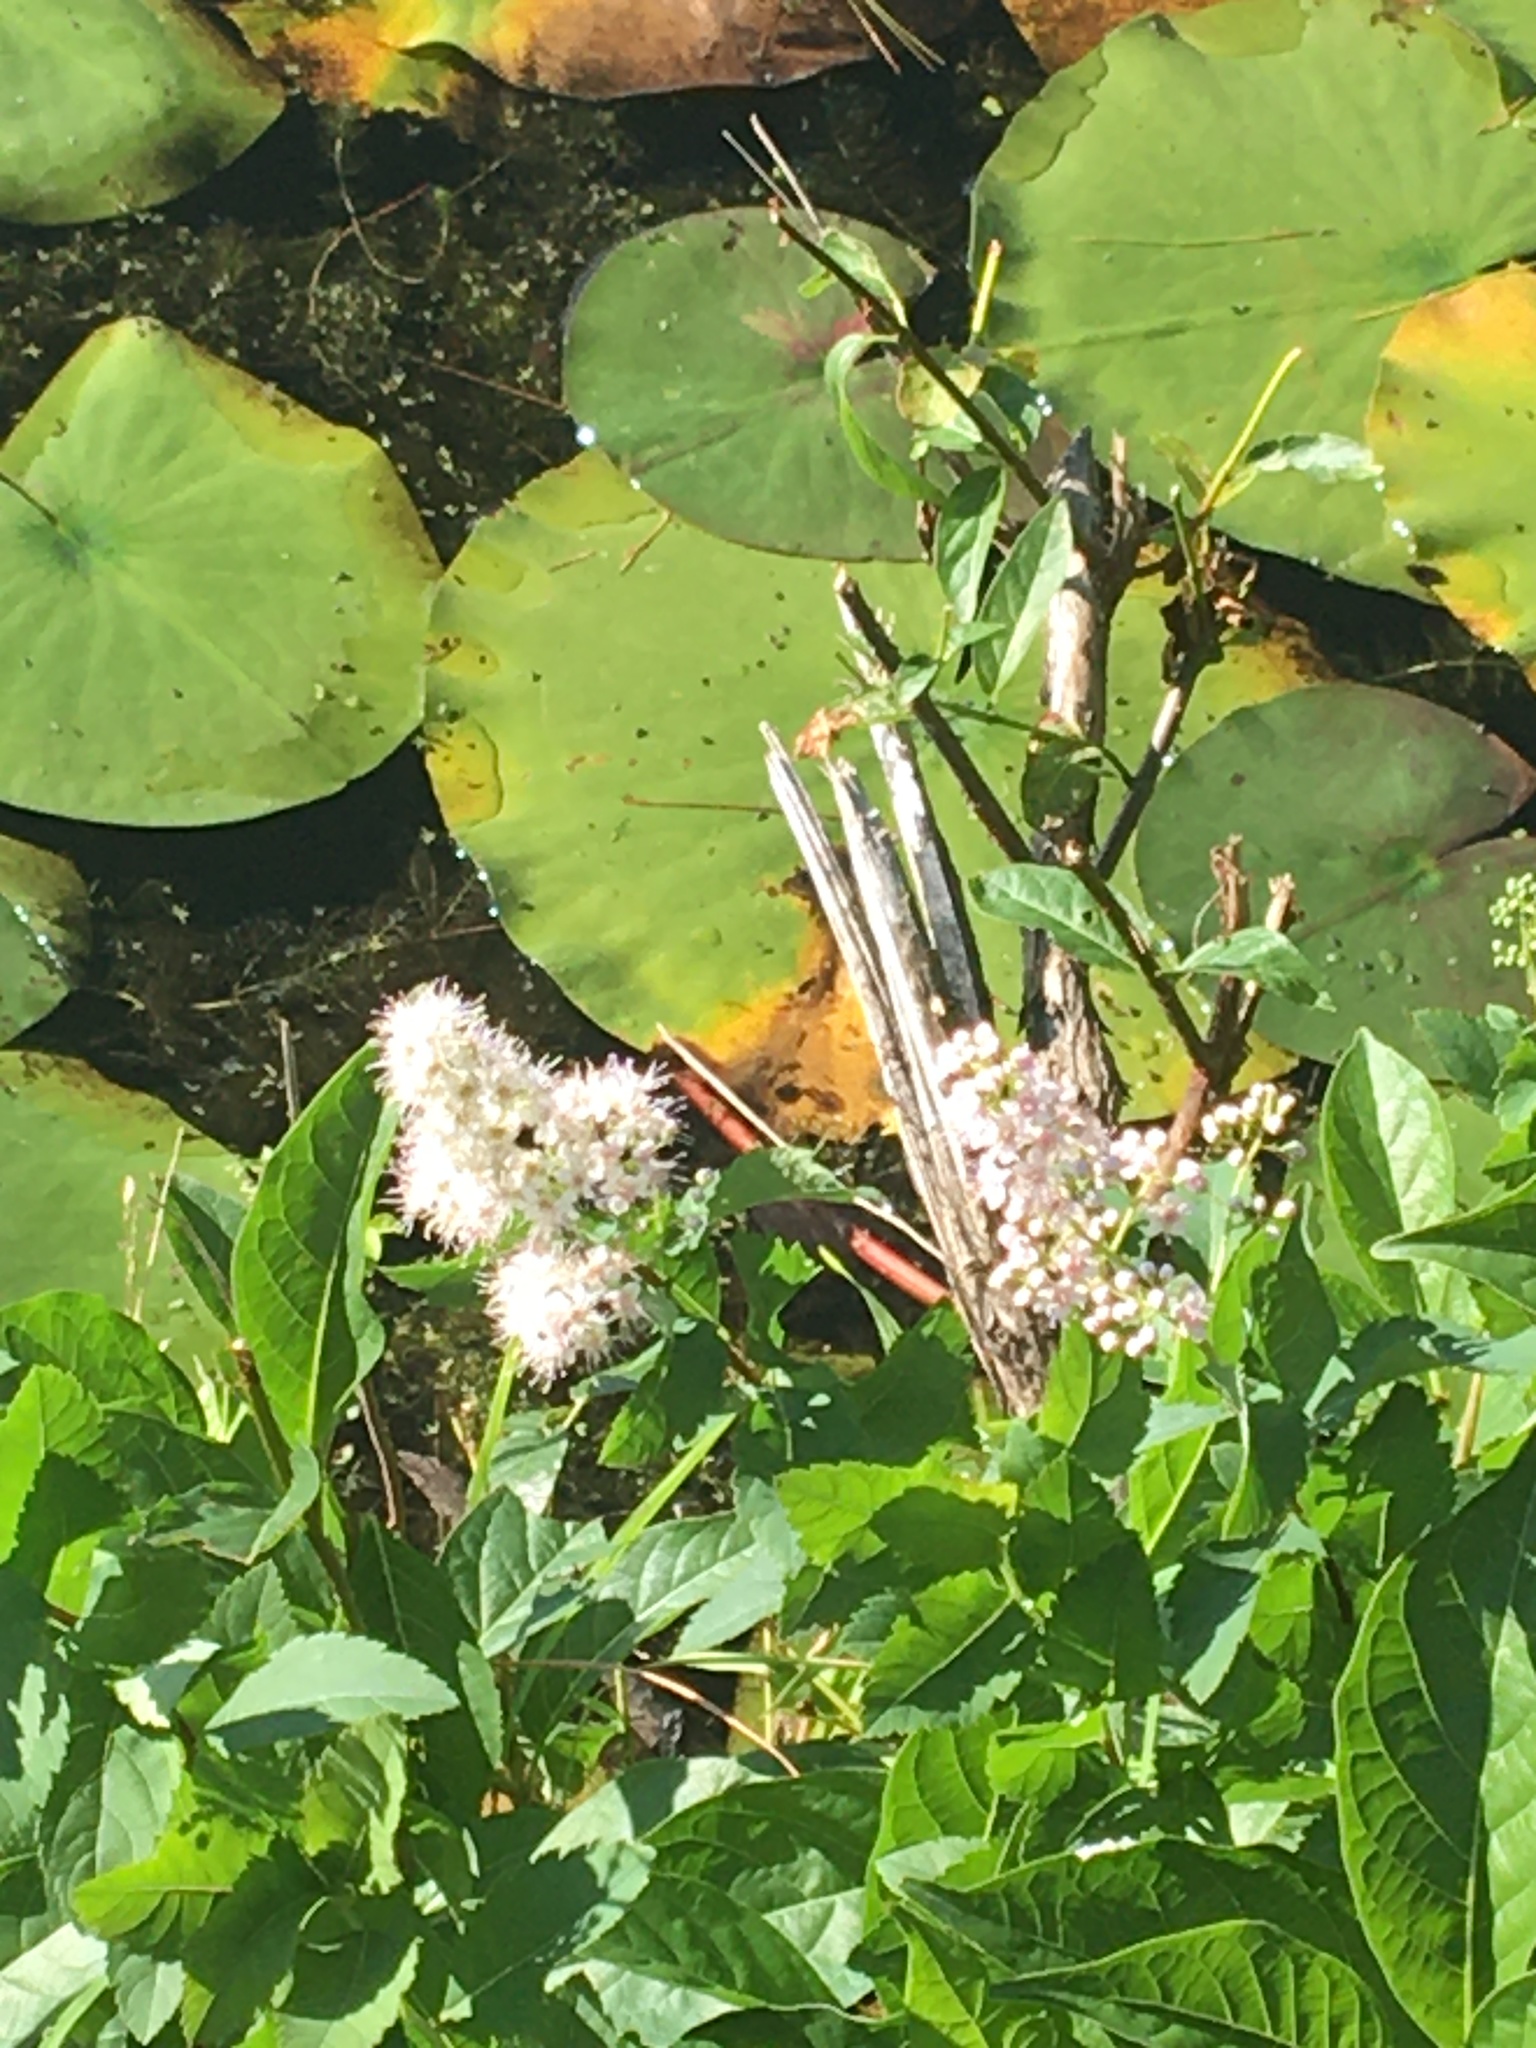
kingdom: Plantae
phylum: Tracheophyta
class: Magnoliopsida
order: Rosales
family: Rosaceae
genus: Spiraea
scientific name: Spiraea alba
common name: Pale bridewort
